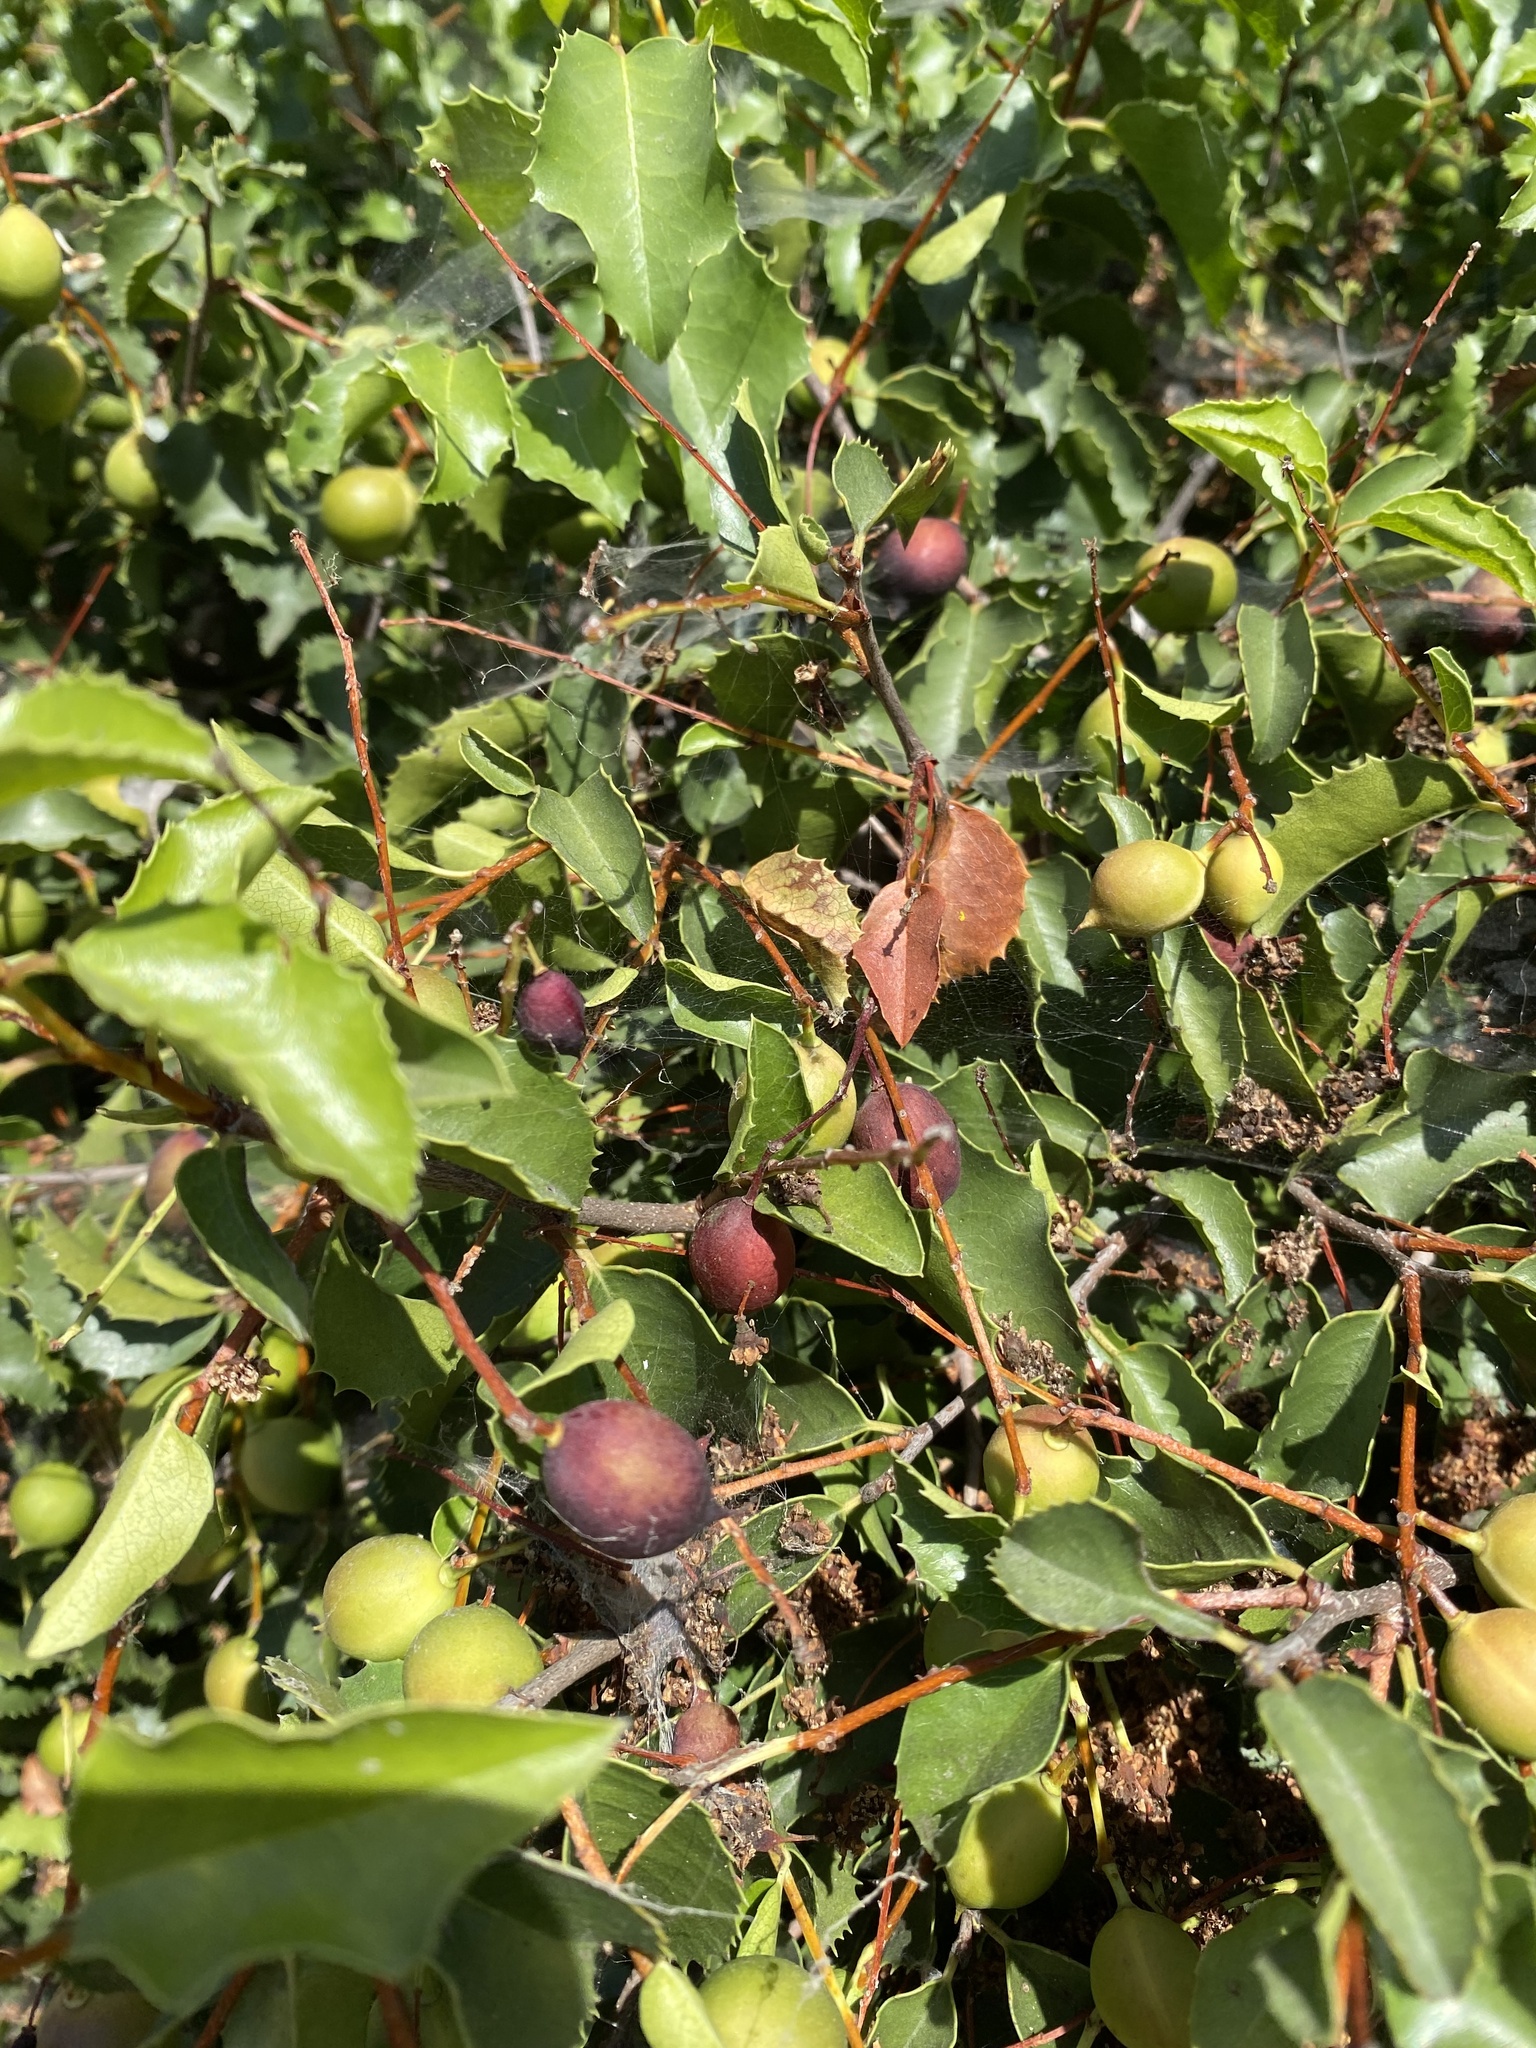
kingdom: Plantae
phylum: Tracheophyta
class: Magnoliopsida
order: Rosales
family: Rosaceae
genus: Prunus
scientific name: Prunus ilicifolia
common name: Hollyleaf cherry
